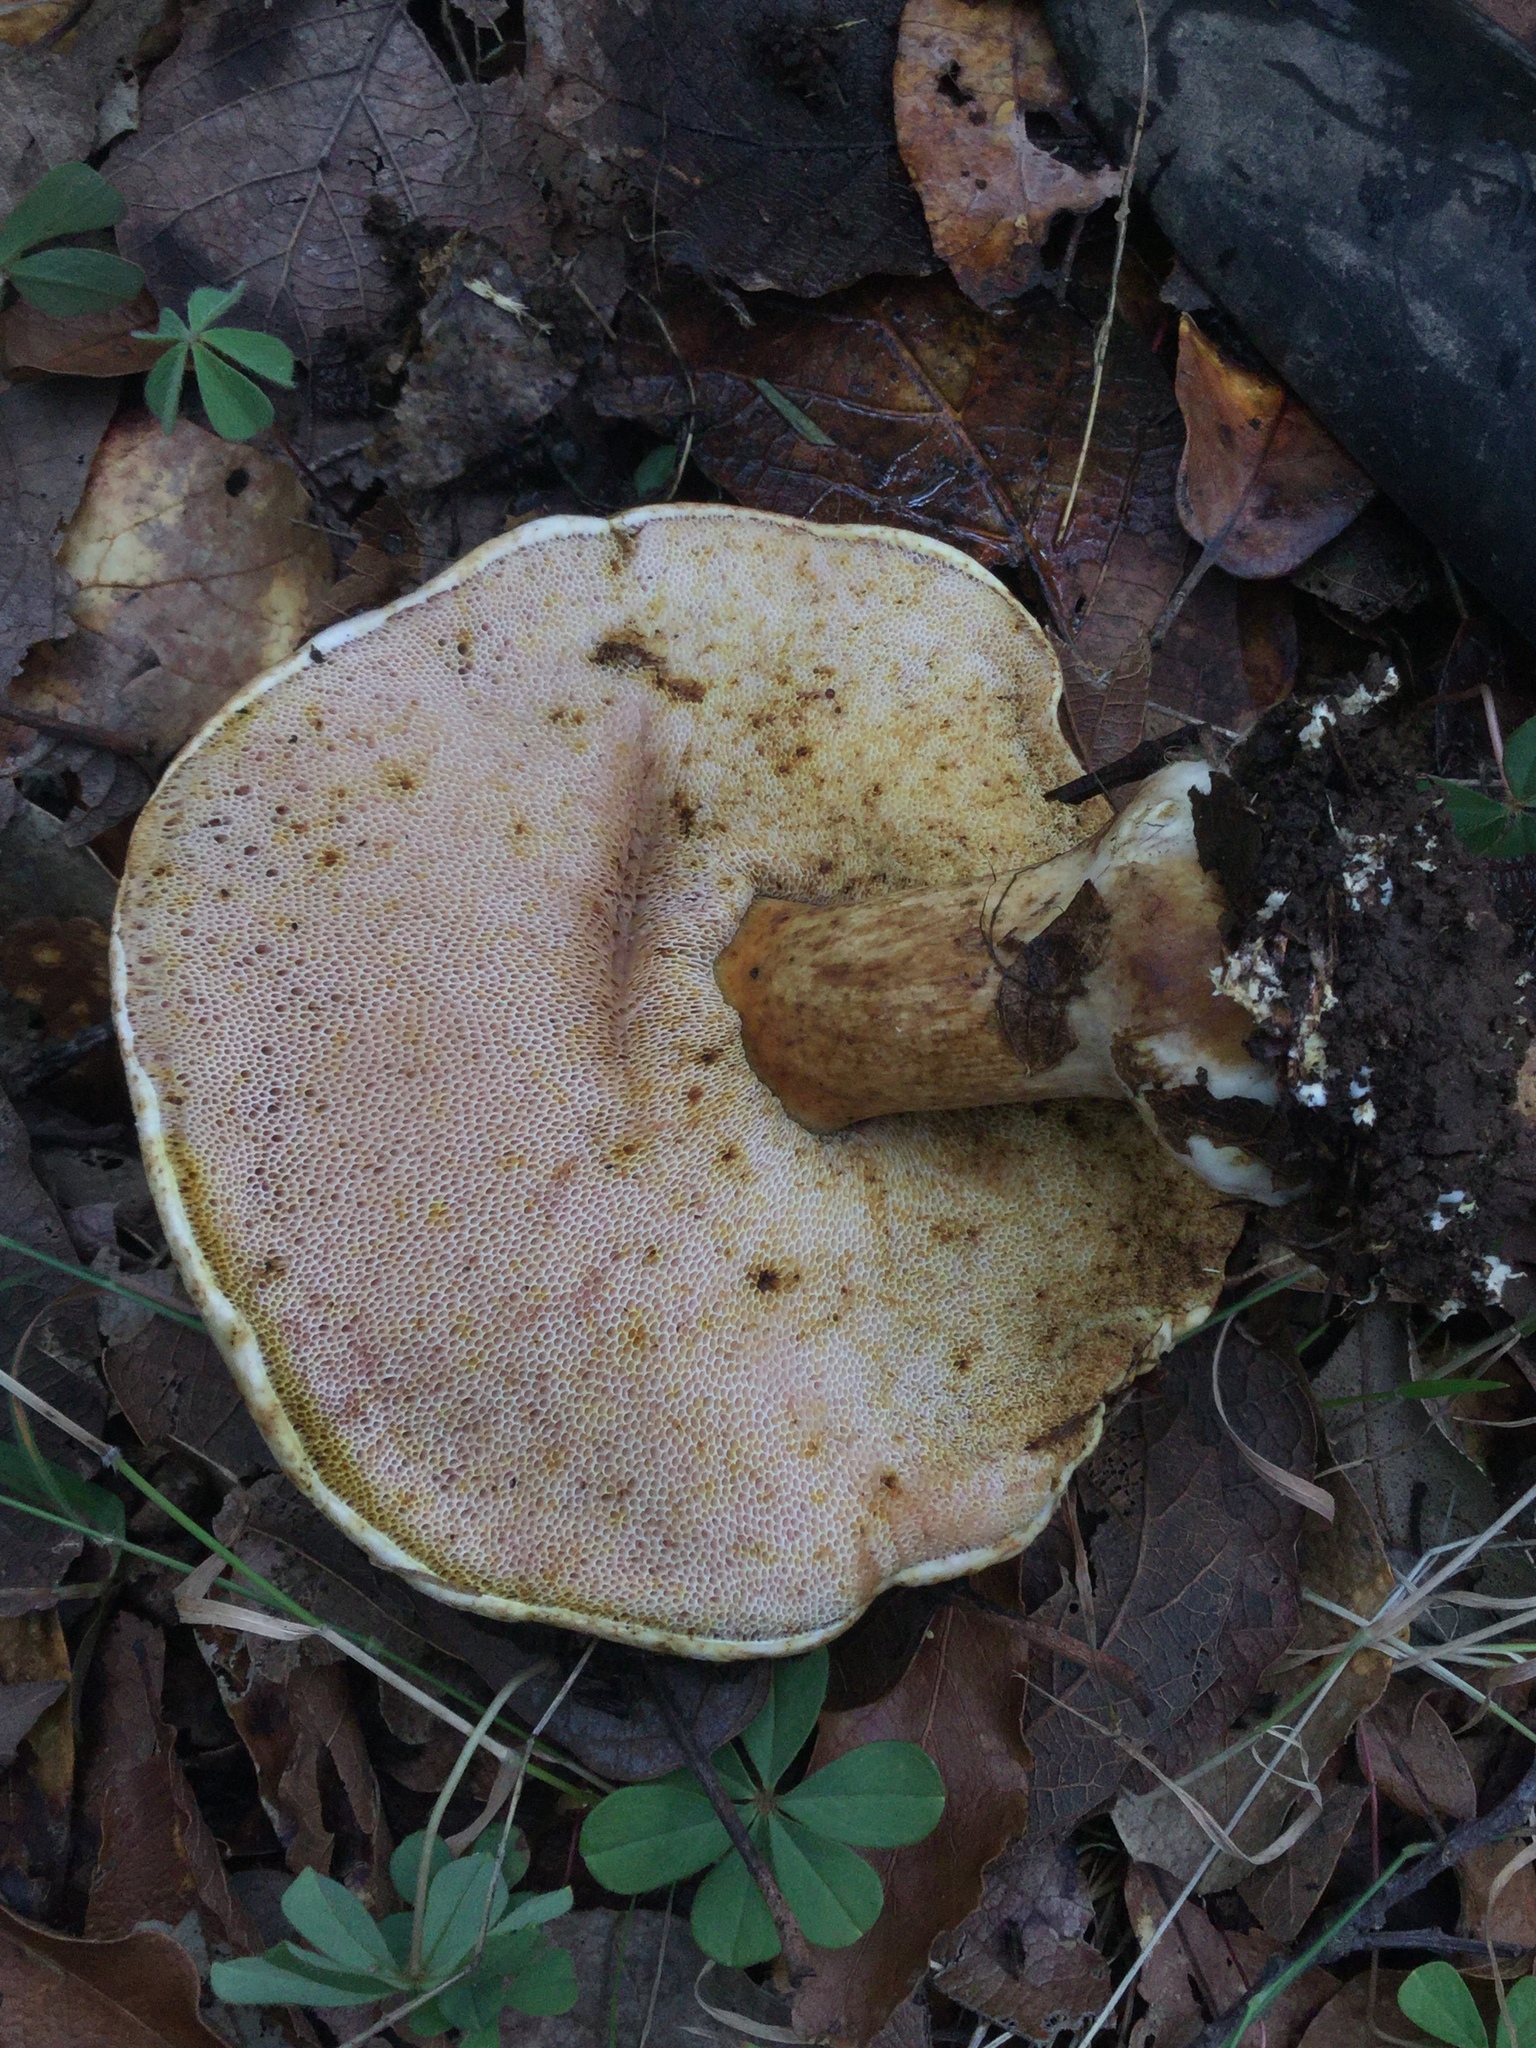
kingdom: Fungi
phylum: Basidiomycota
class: Agaricomycetes
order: Boletales
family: Boletaceae
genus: Fistulinella
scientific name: Fistulinella wolfeana
